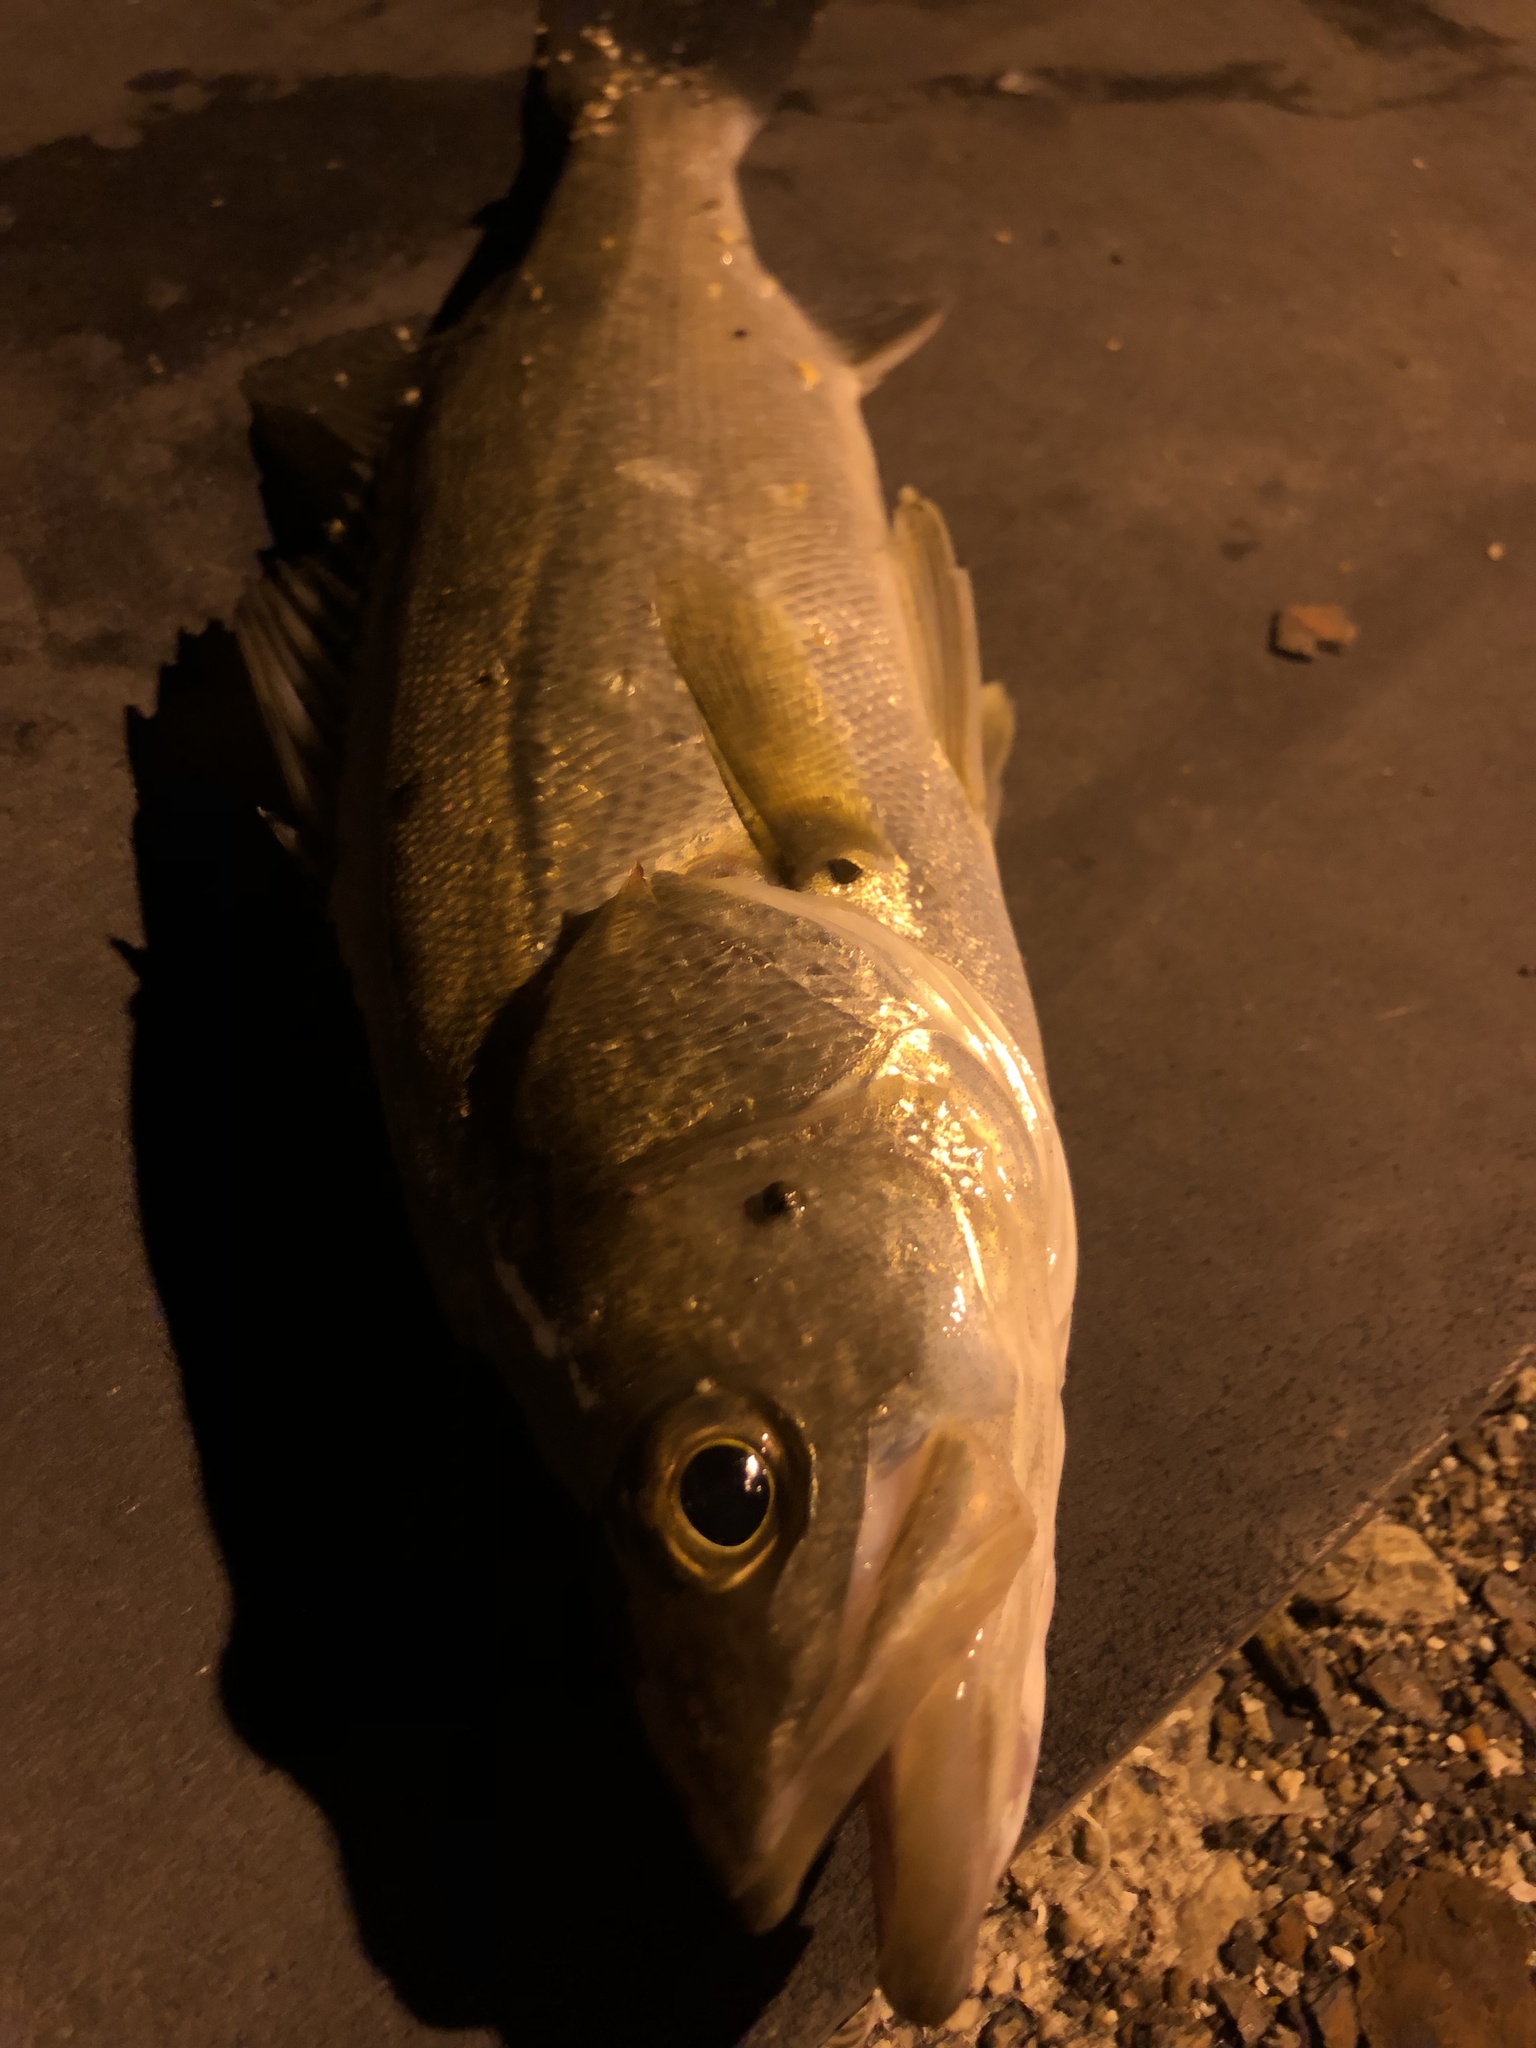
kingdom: Animalia
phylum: Chordata
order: Perciformes
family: Lateolabracidae
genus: Lateolabrax
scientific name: Lateolabrax japonicus
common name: Japan sea bass
